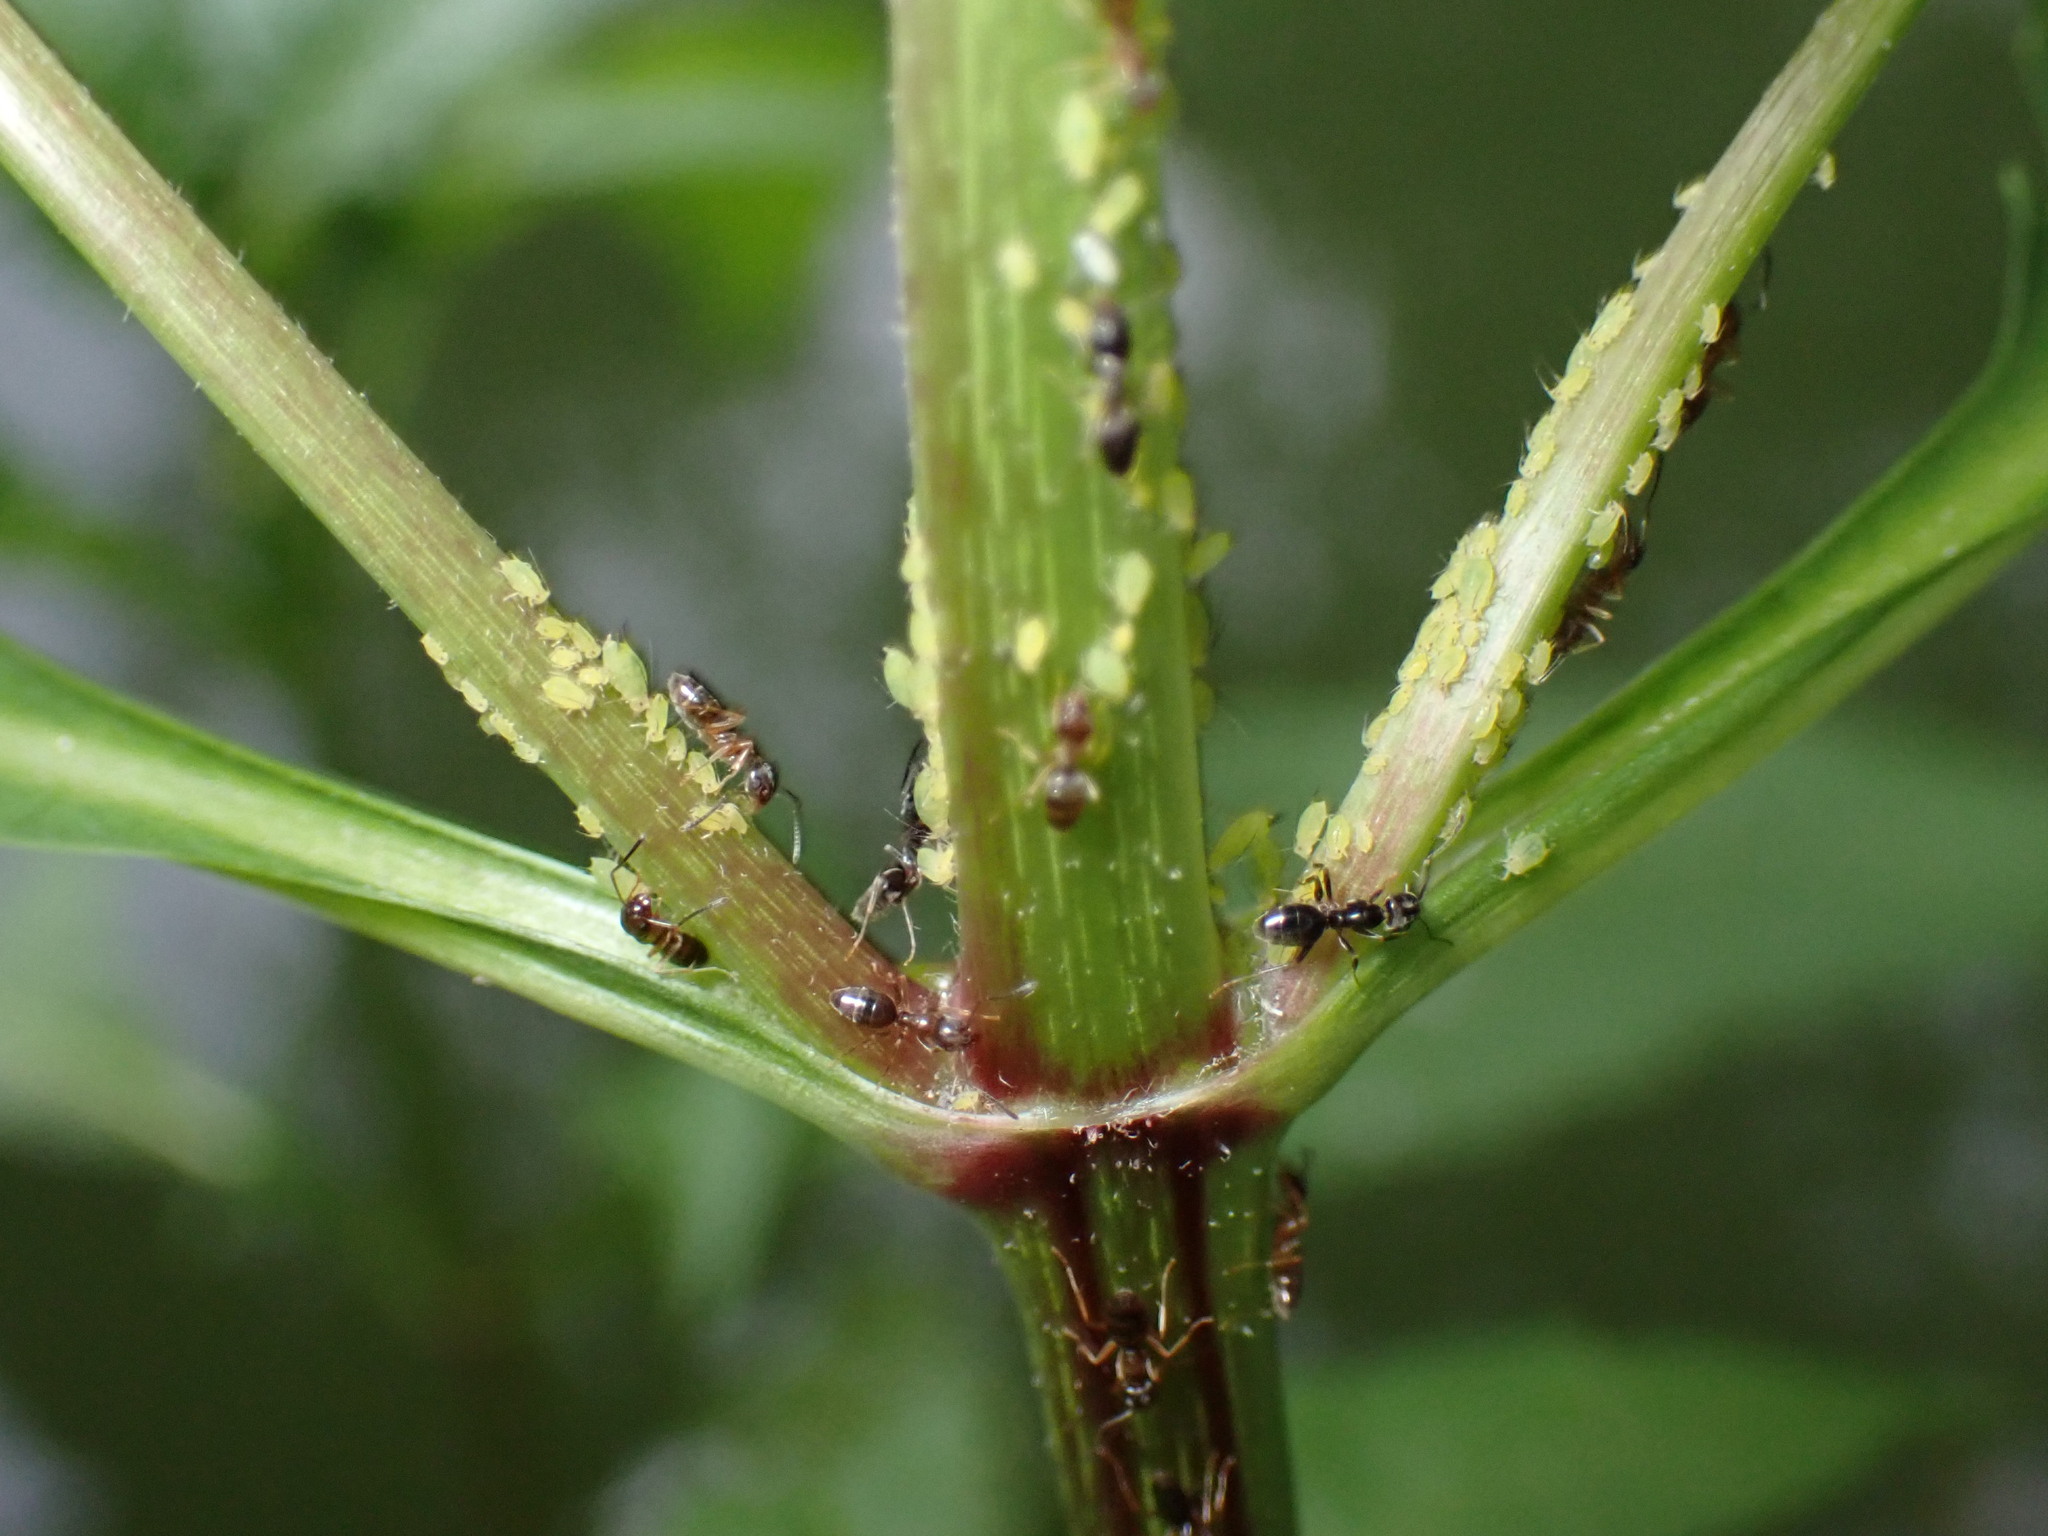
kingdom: Animalia
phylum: Arthropoda
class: Insecta
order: Hemiptera
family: Aphididae
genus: Aphis
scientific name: Aphis coreopsidis
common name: Aphid
